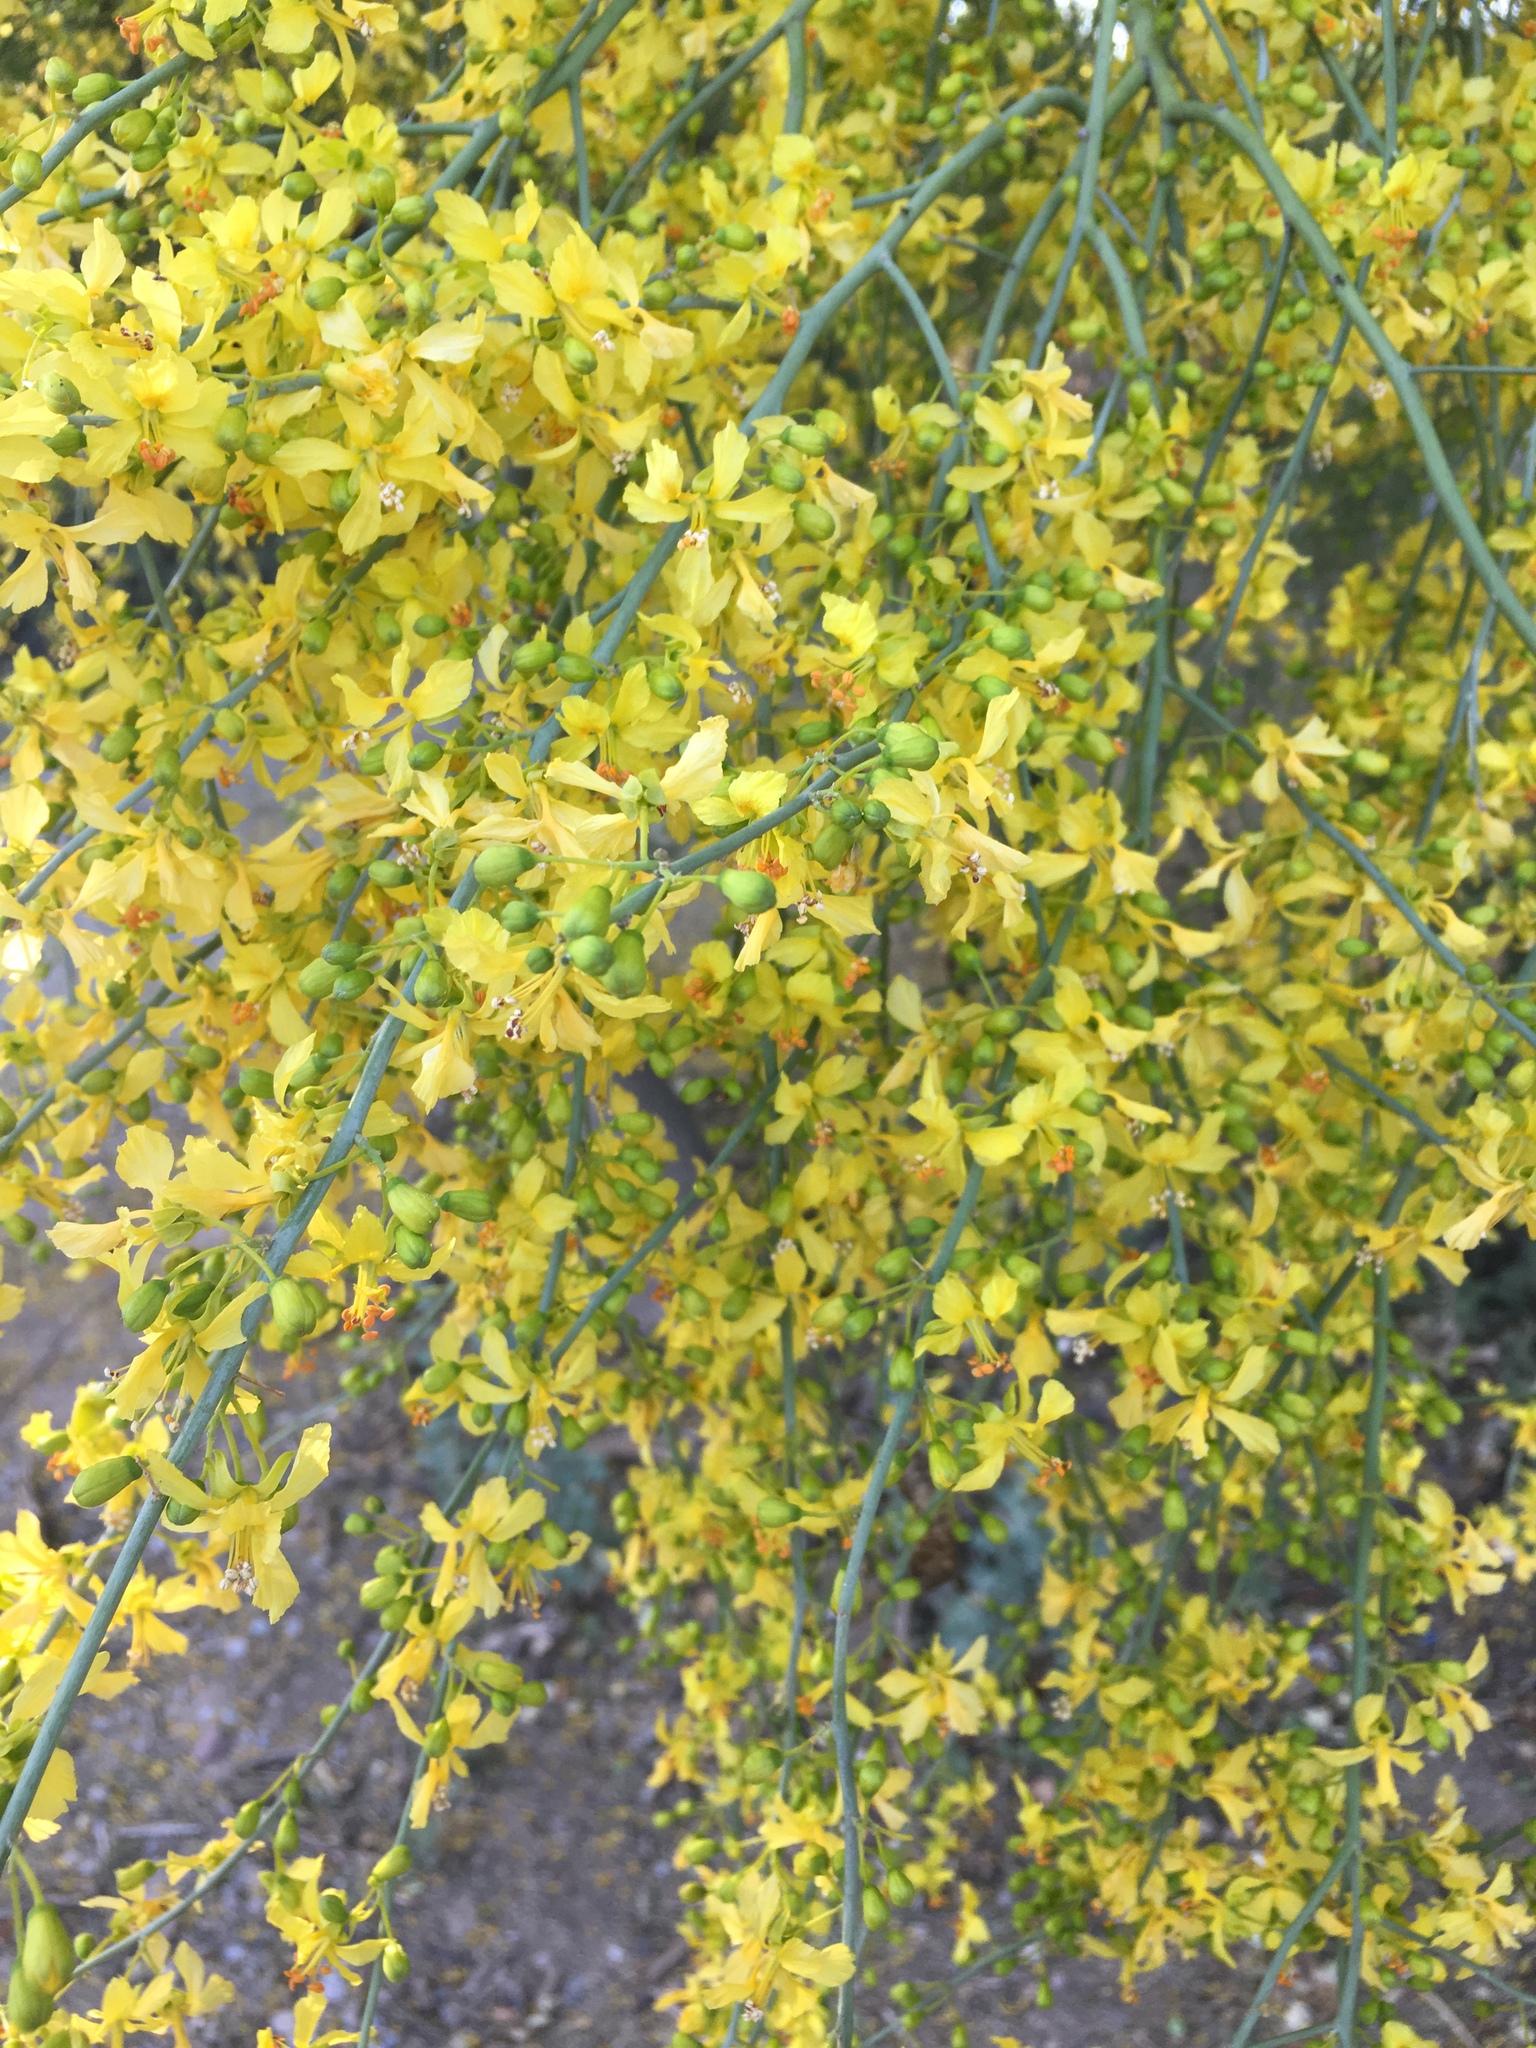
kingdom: Plantae
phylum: Tracheophyta
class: Magnoliopsida
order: Fabales
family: Fabaceae
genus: Parkinsonia
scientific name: Parkinsonia aculeata
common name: Jerusalem thorn
